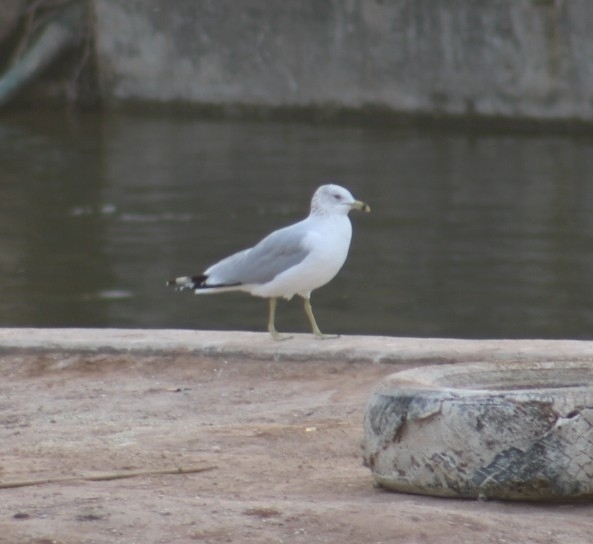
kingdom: Animalia
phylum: Chordata
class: Aves
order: Charadriiformes
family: Laridae
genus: Larus
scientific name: Larus delawarensis
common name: Ring-billed gull
